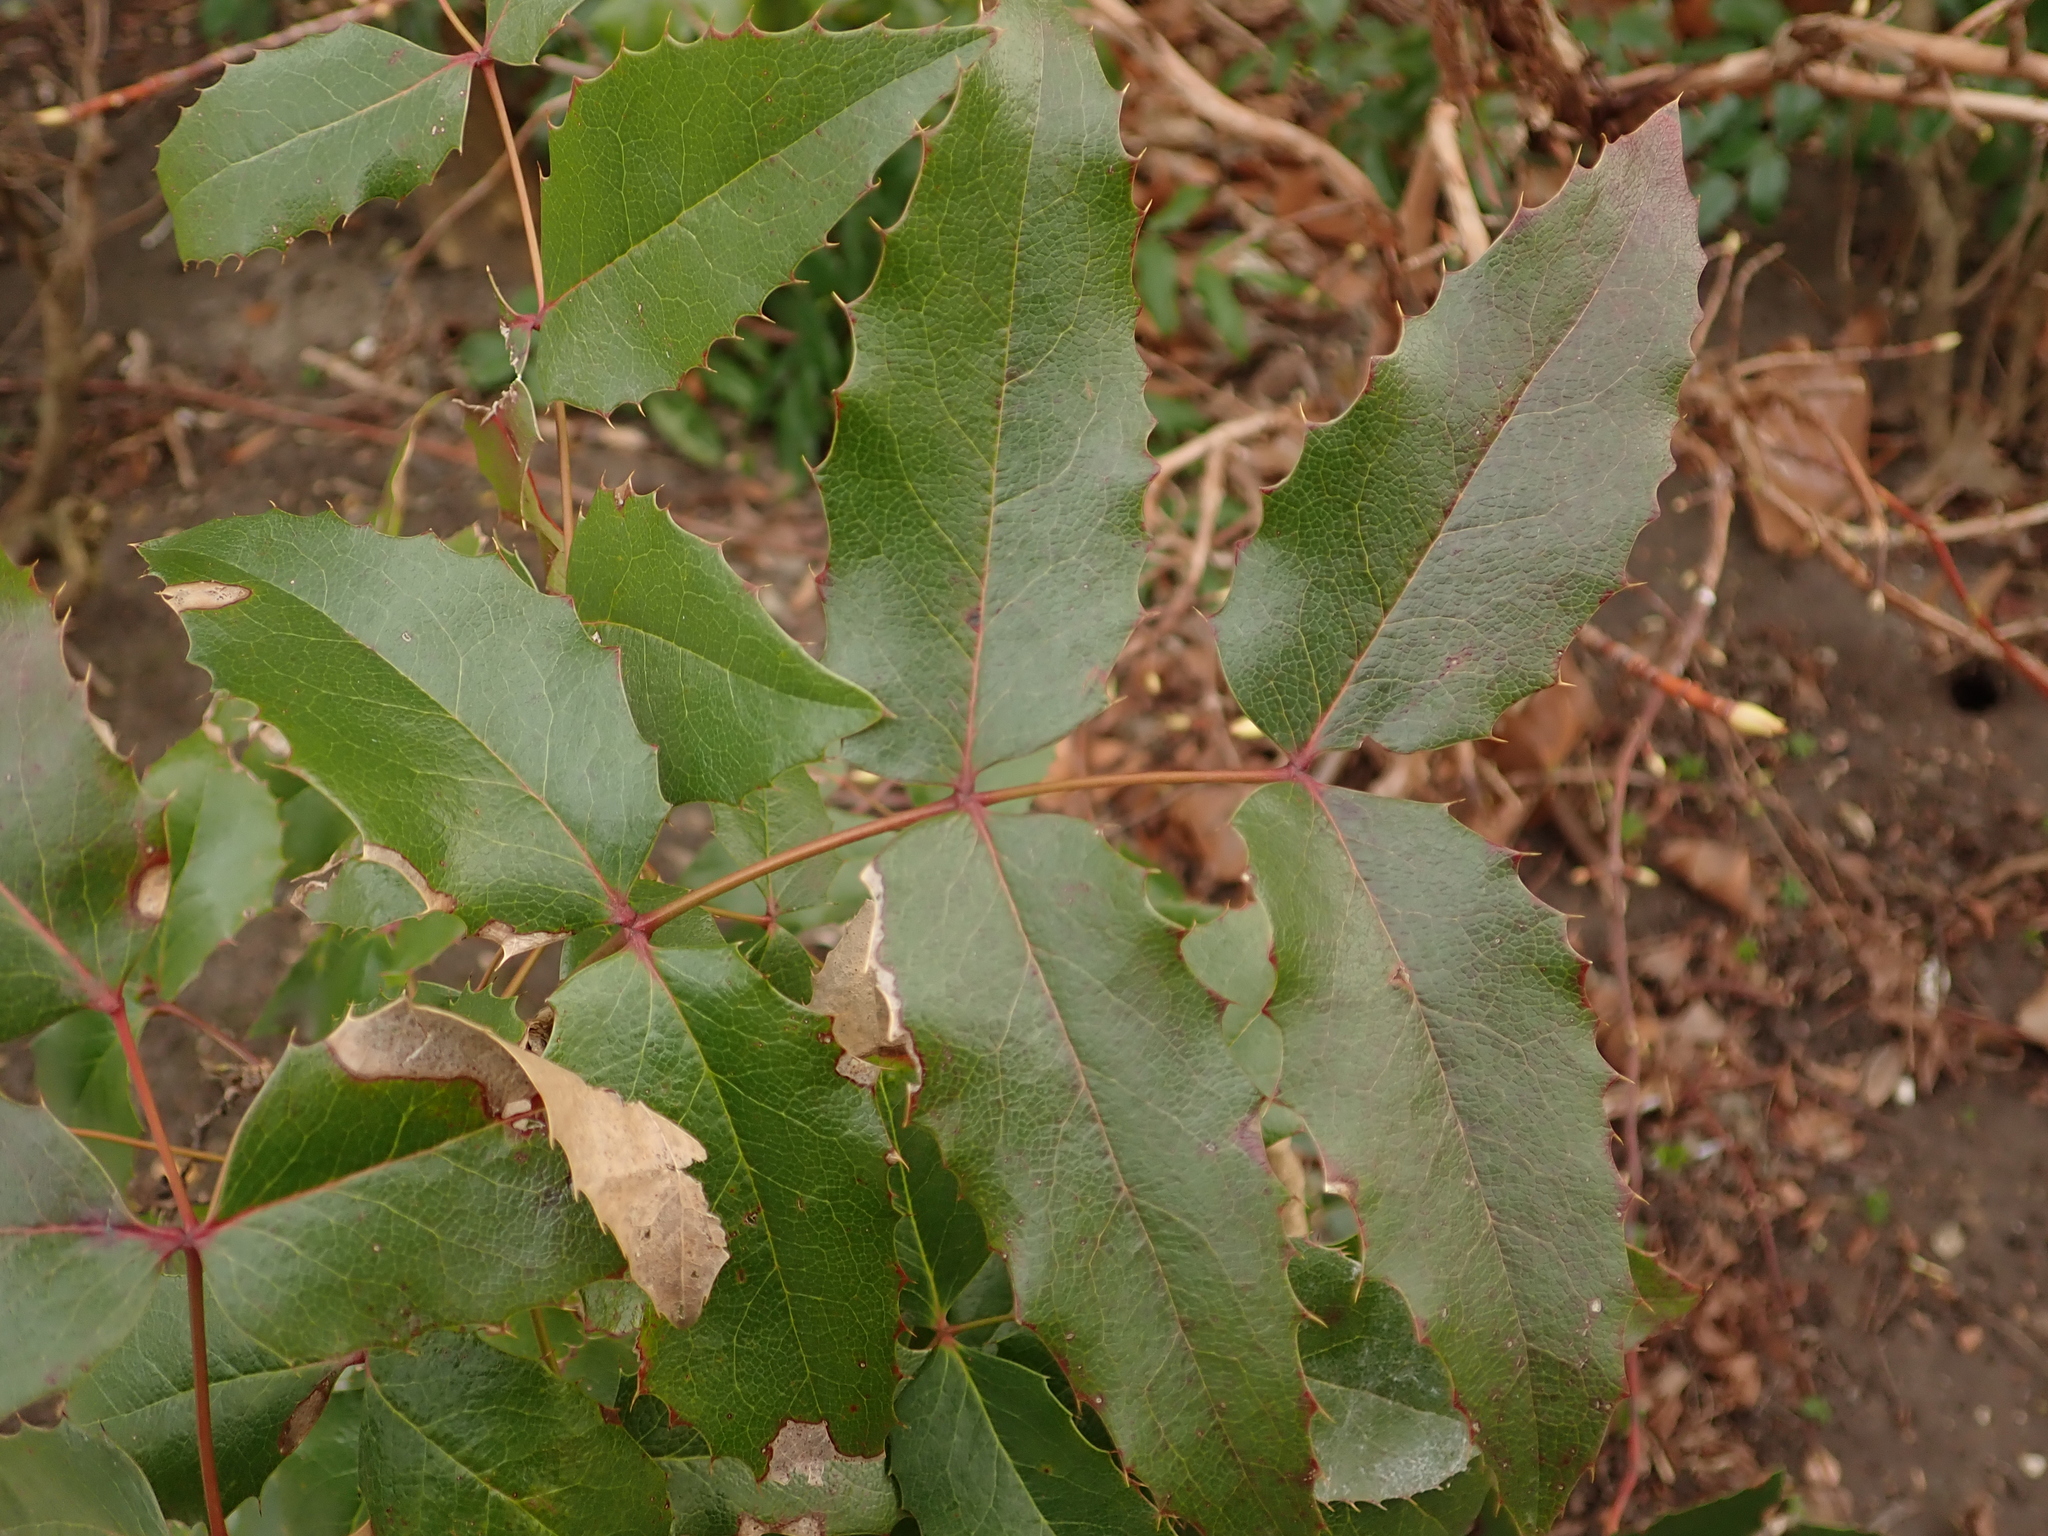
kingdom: Plantae
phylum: Tracheophyta
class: Magnoliopsida
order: Ranunculales
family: Berberidaceae
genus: Mahonia
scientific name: Mahonia aquifolium
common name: Oregon-grape
